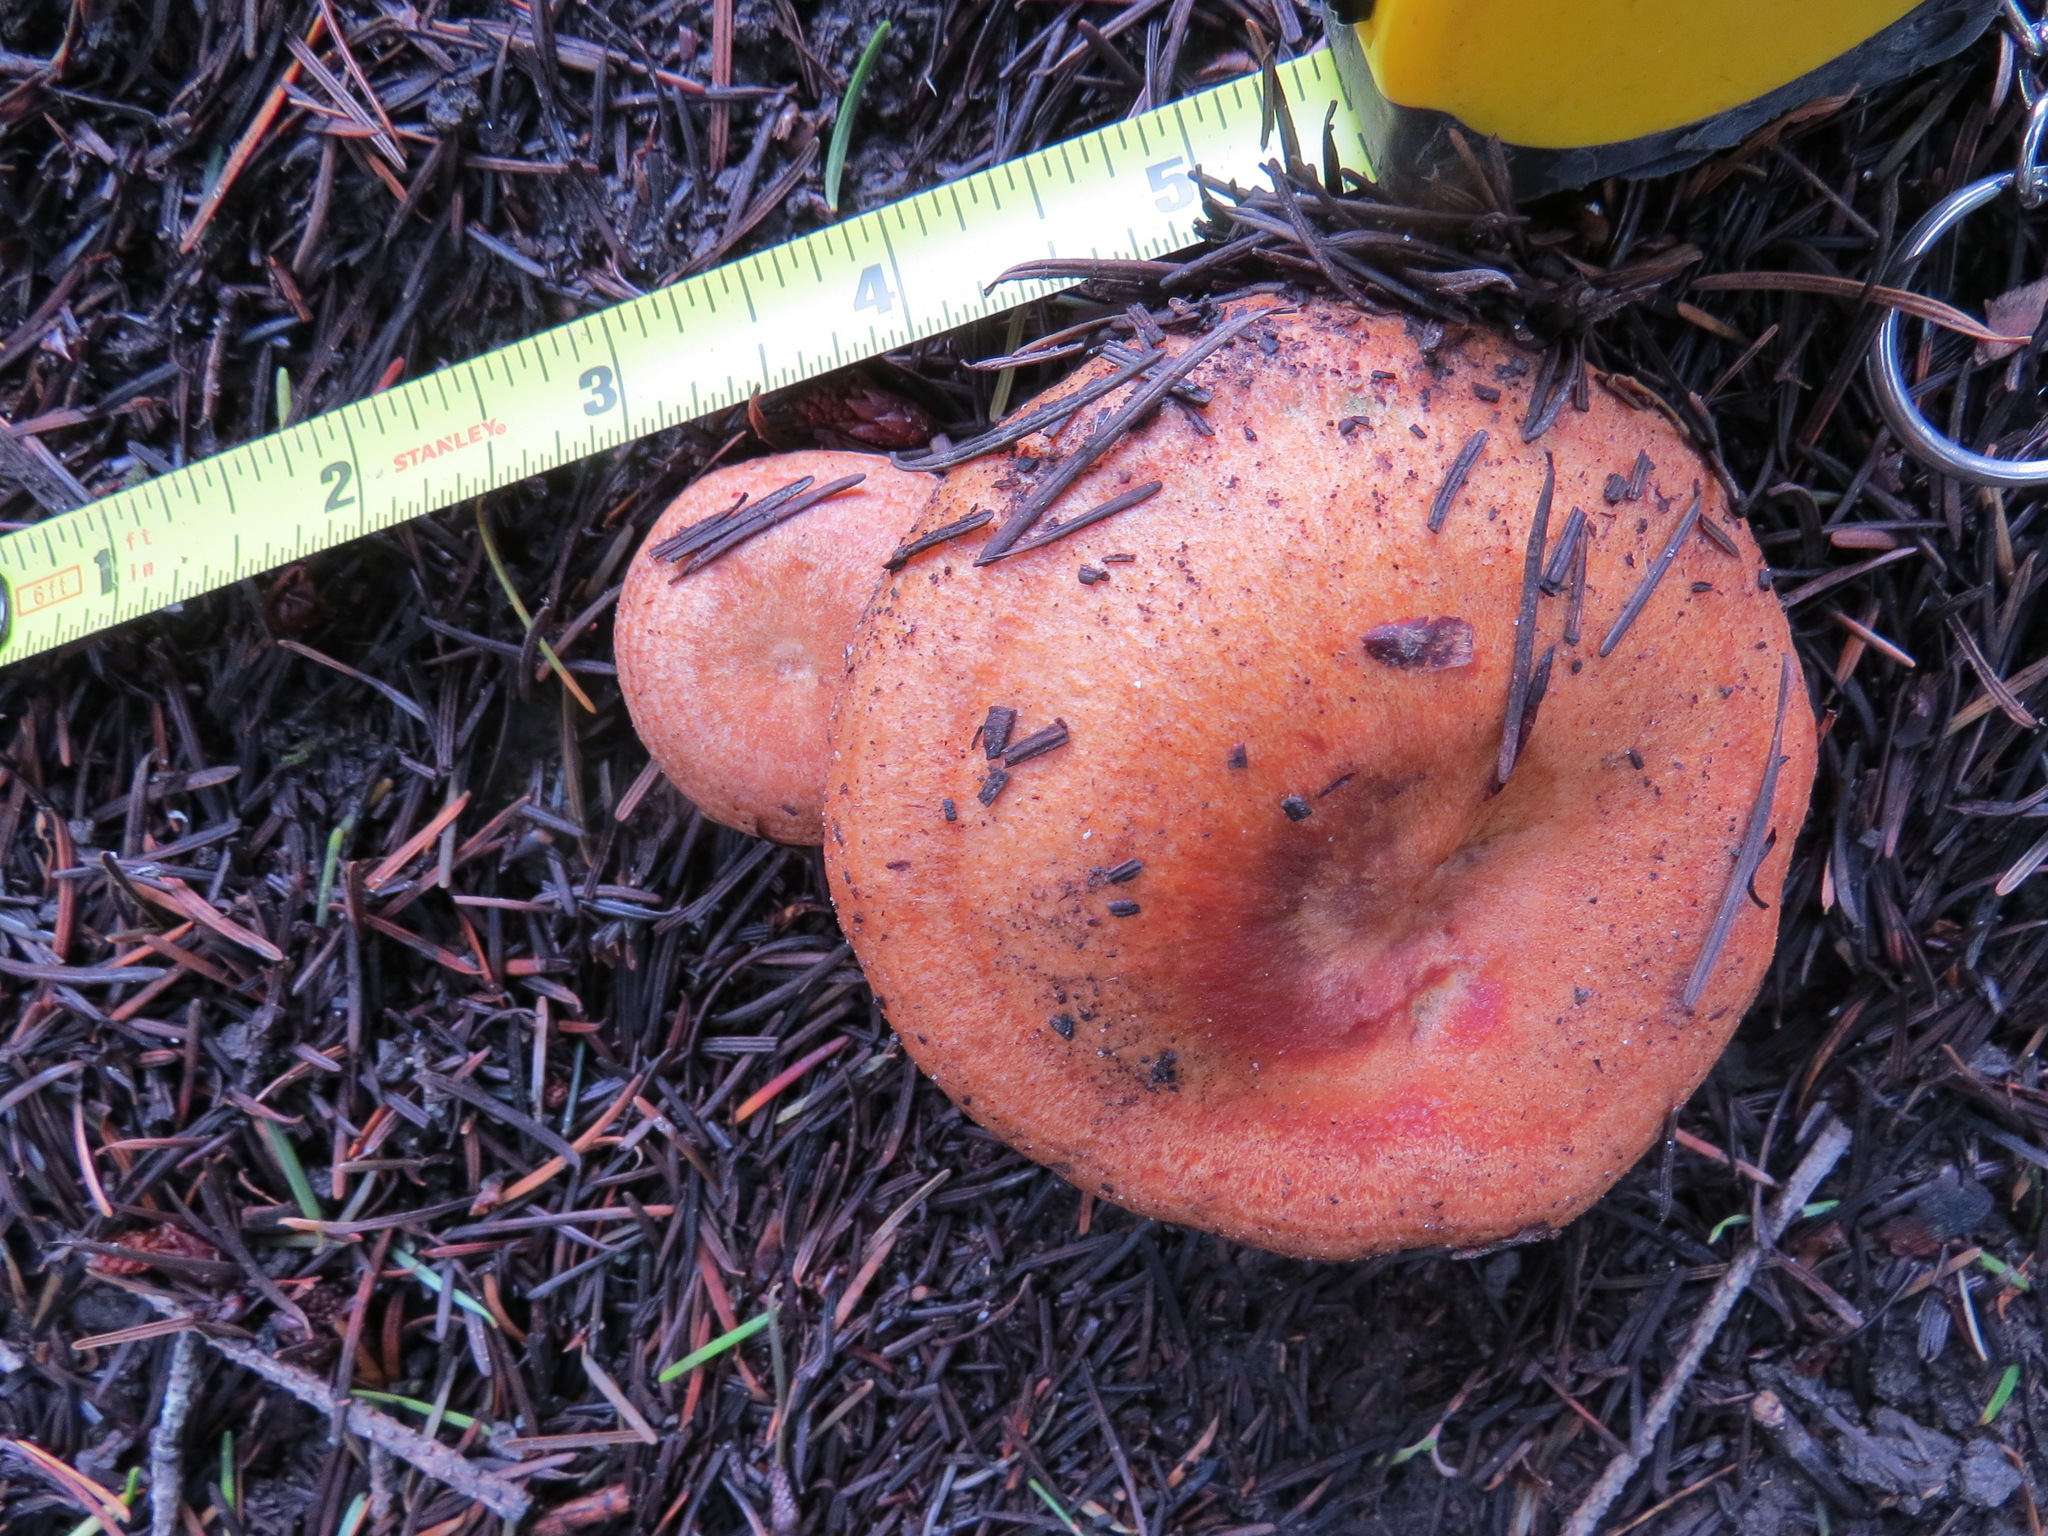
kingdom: Fungi
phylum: Basidiomycota
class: Agaricomycetes
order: Russulales
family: Russulaceae
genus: Lactarius
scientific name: Lactarius rubrilacteus
